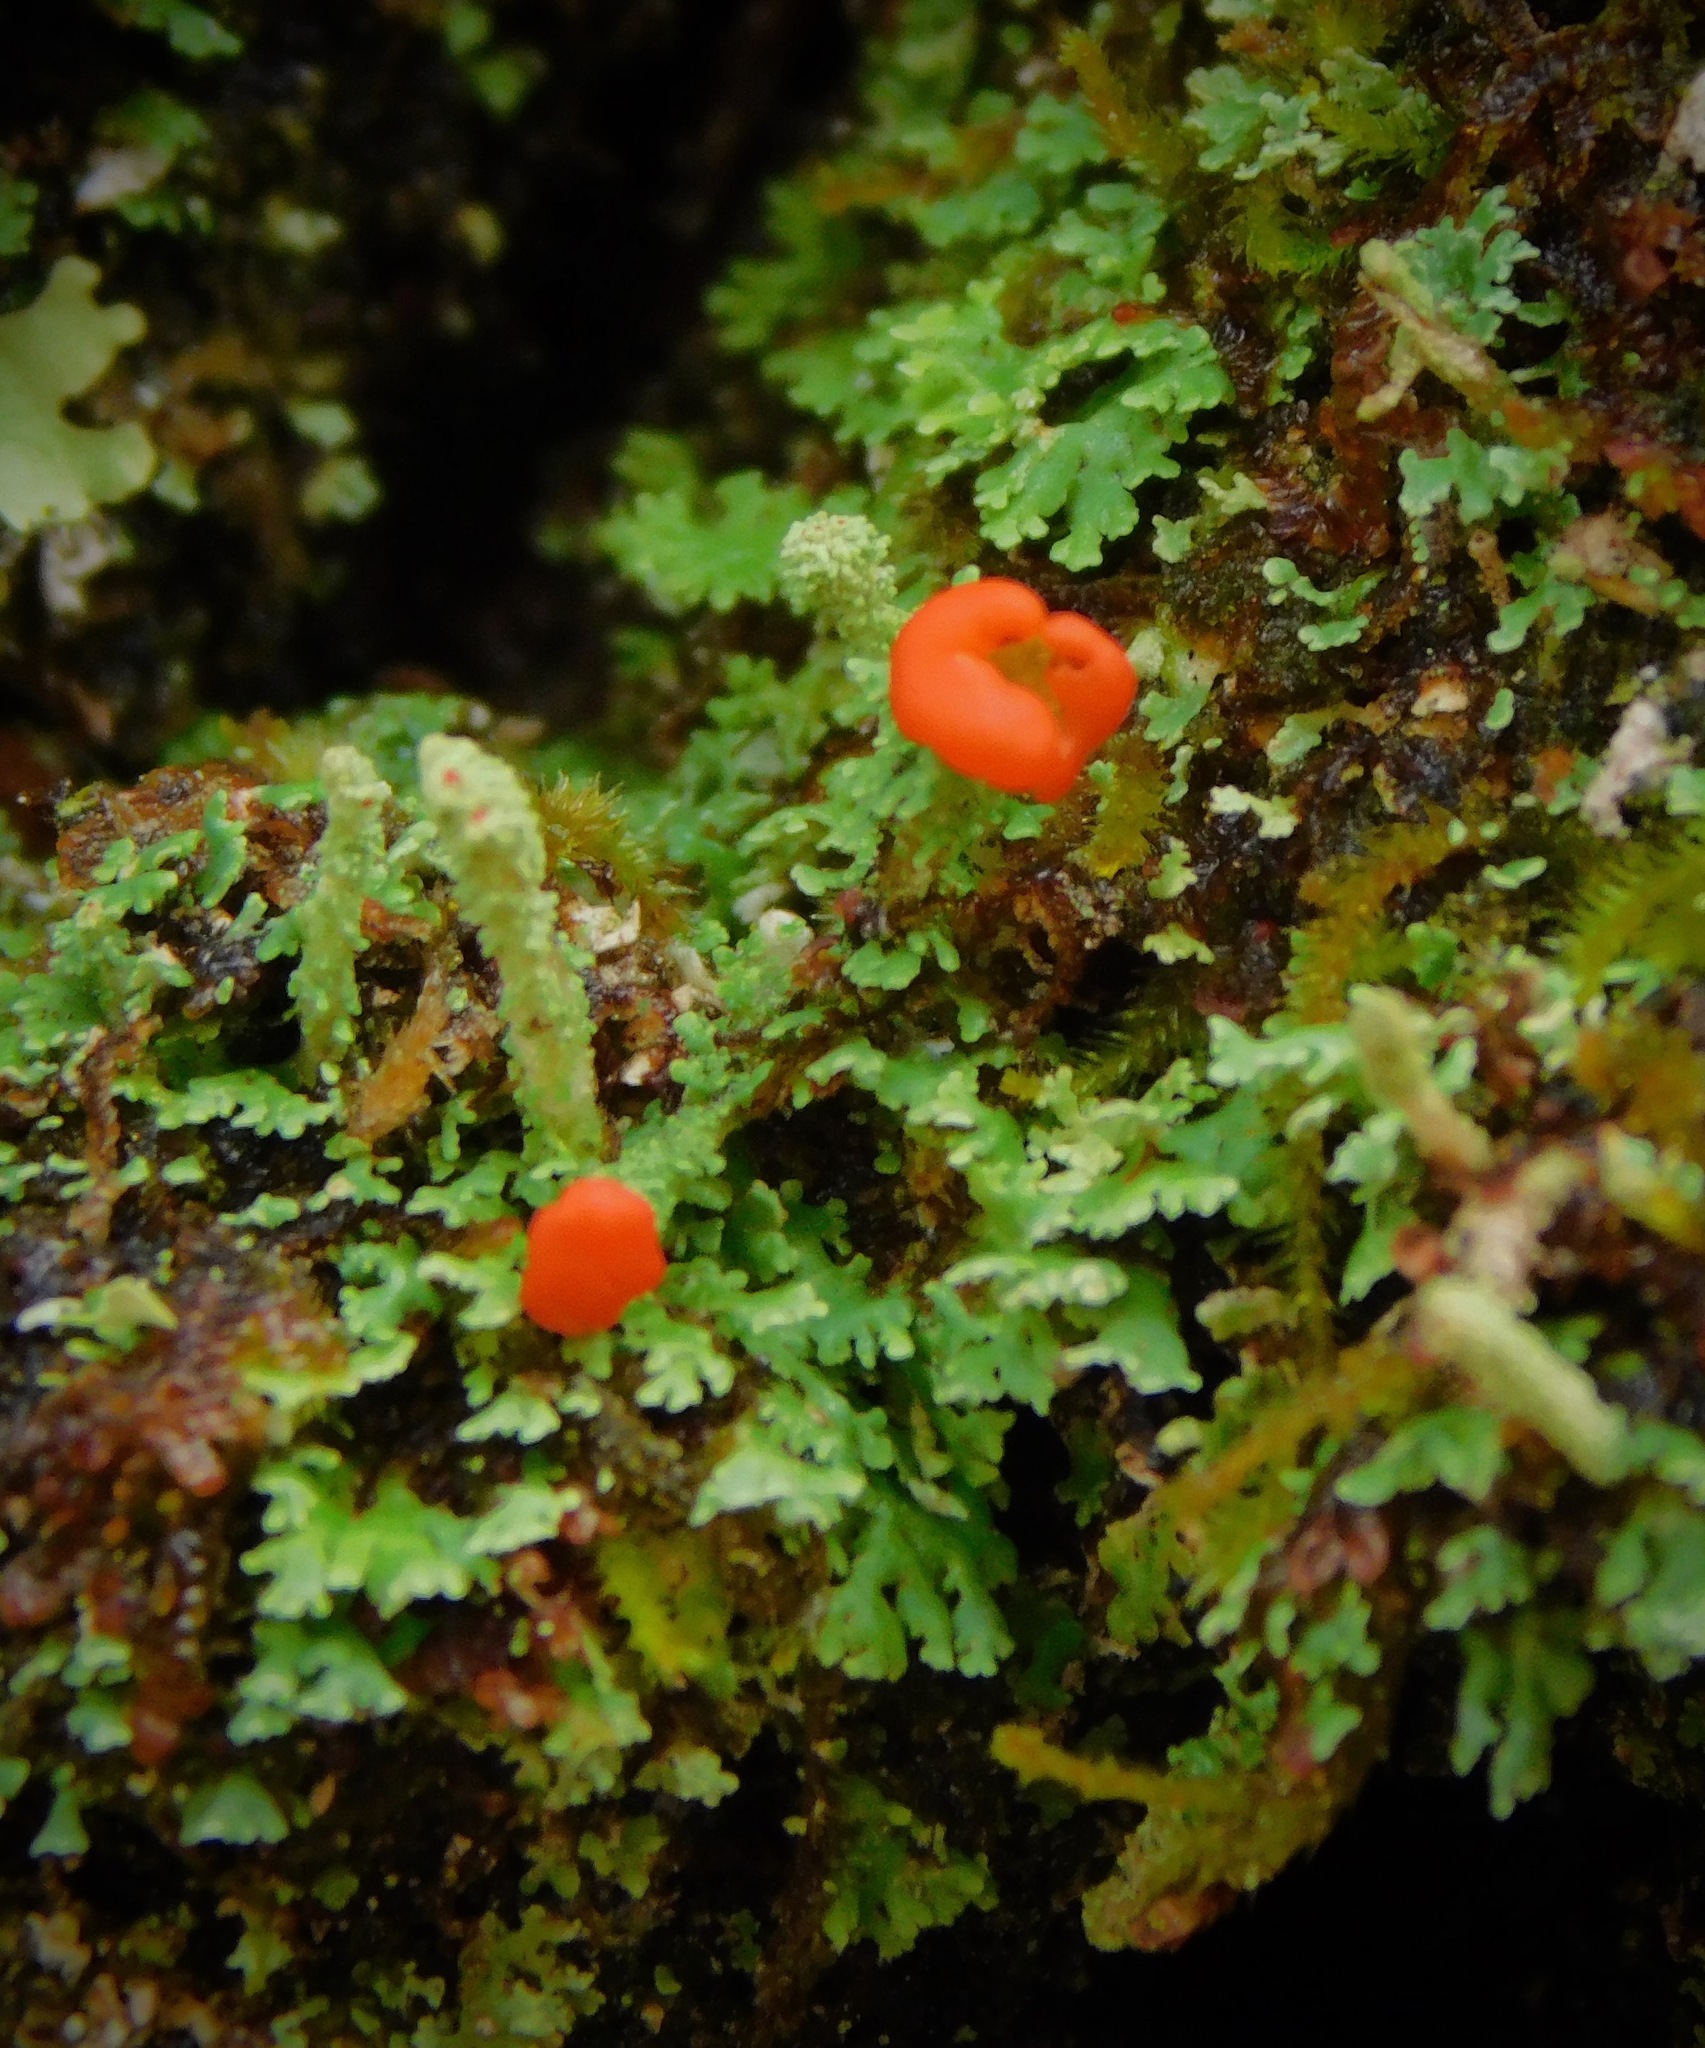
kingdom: Fungi
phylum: Ascomycota
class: Lecanoromycetes
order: Lecanorales
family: Cladoniaceae
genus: Cladonia
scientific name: Cladonia didyma
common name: Southern soldiers
